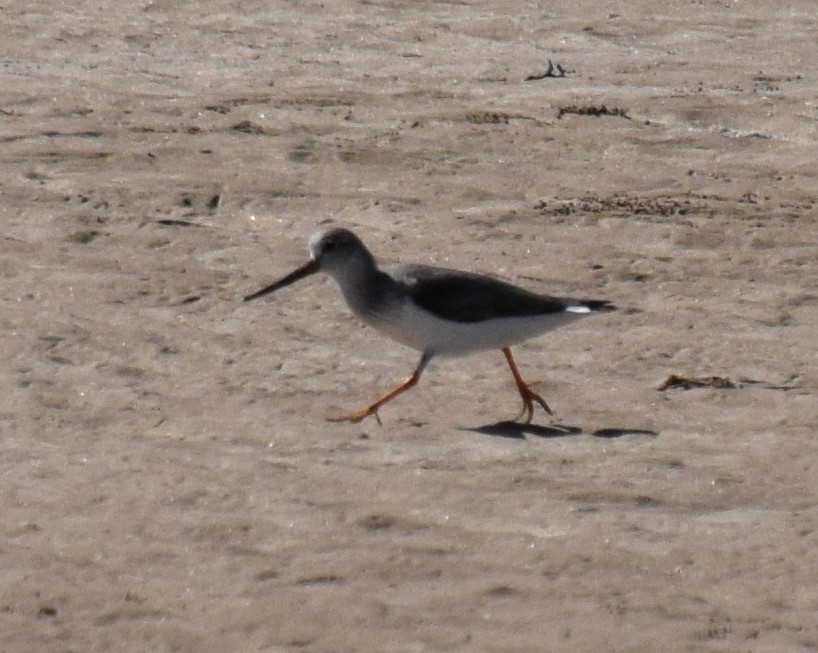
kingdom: Animalia
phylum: Chordata
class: Aves
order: Charadriiformes
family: Scolopacidae
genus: Xenus
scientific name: Xenus cinereus
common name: Terek sandpiper
